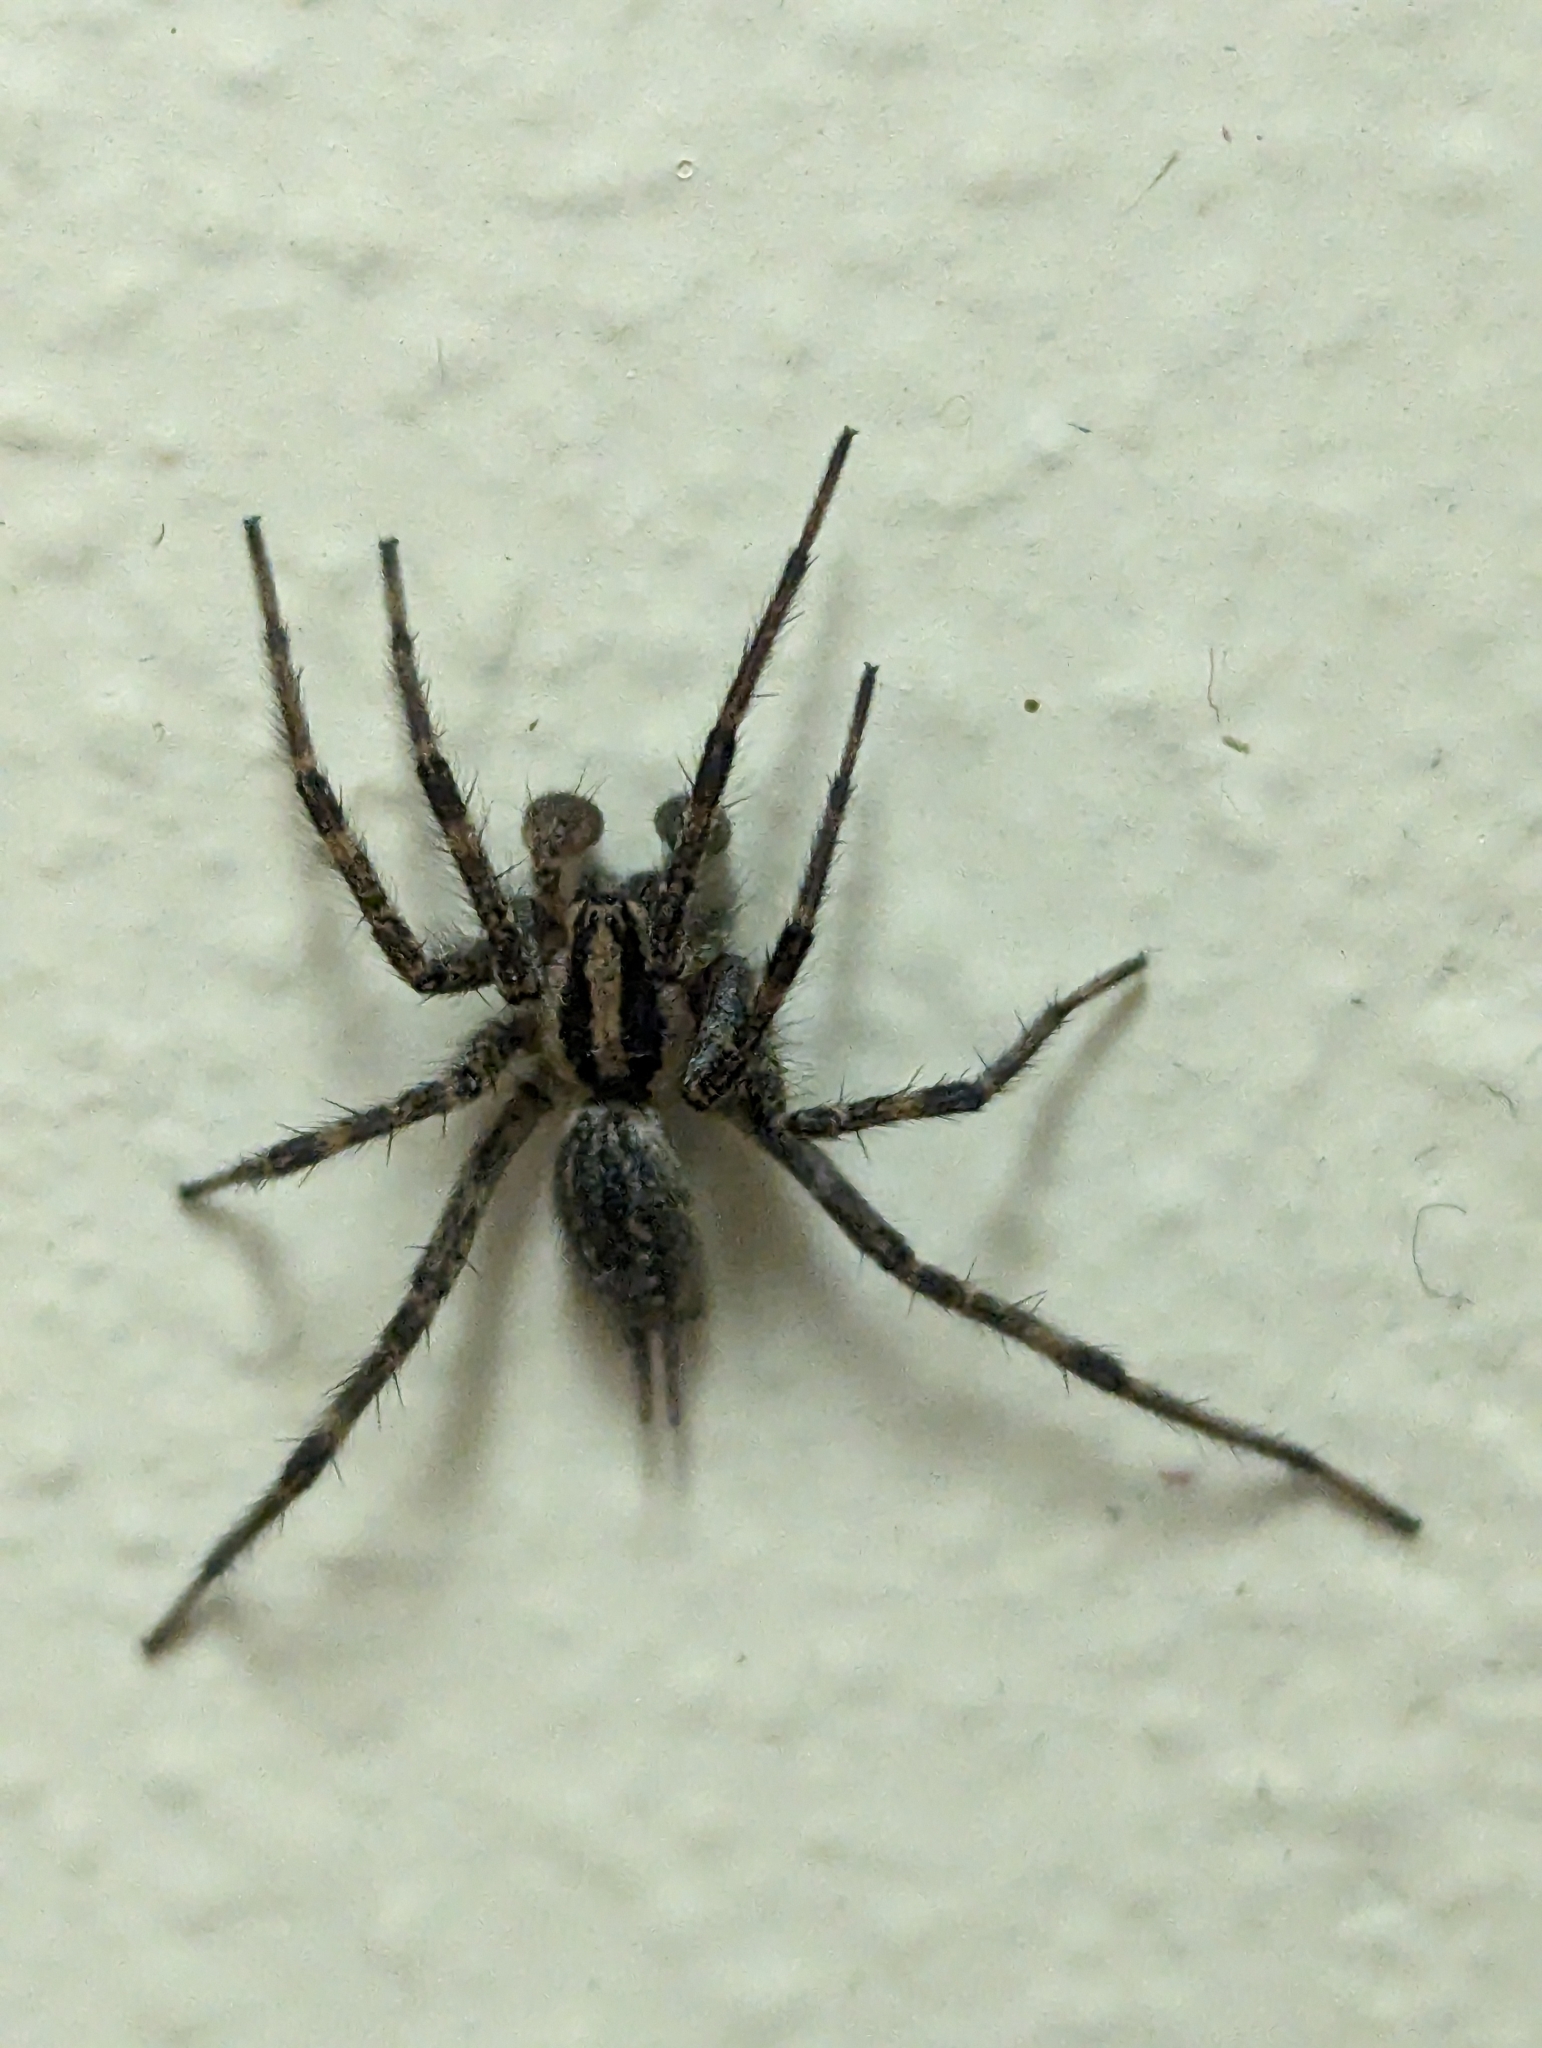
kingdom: Animalia
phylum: Arthropoda
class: Arachnida
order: Araneae
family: Agelenidae
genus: Agelenopsis
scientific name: Agelenopsis
